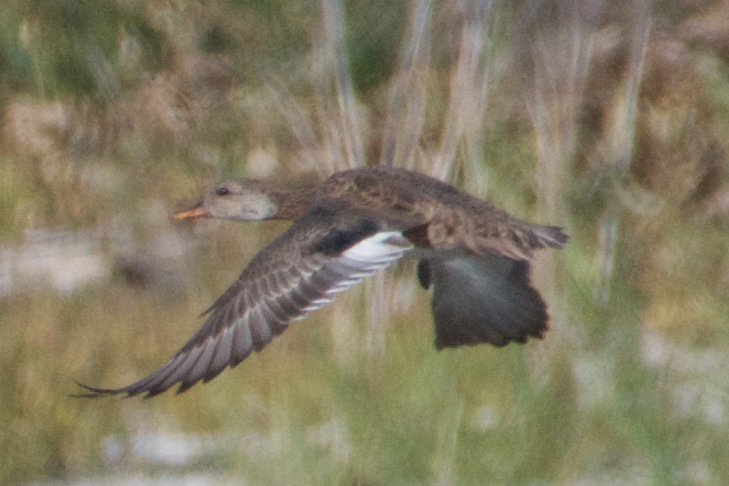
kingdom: Animalia
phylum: Chordata
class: Aves
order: Anseriformes
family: Anatidae
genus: Mareca
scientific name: Mareca strepera
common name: Gadwall
